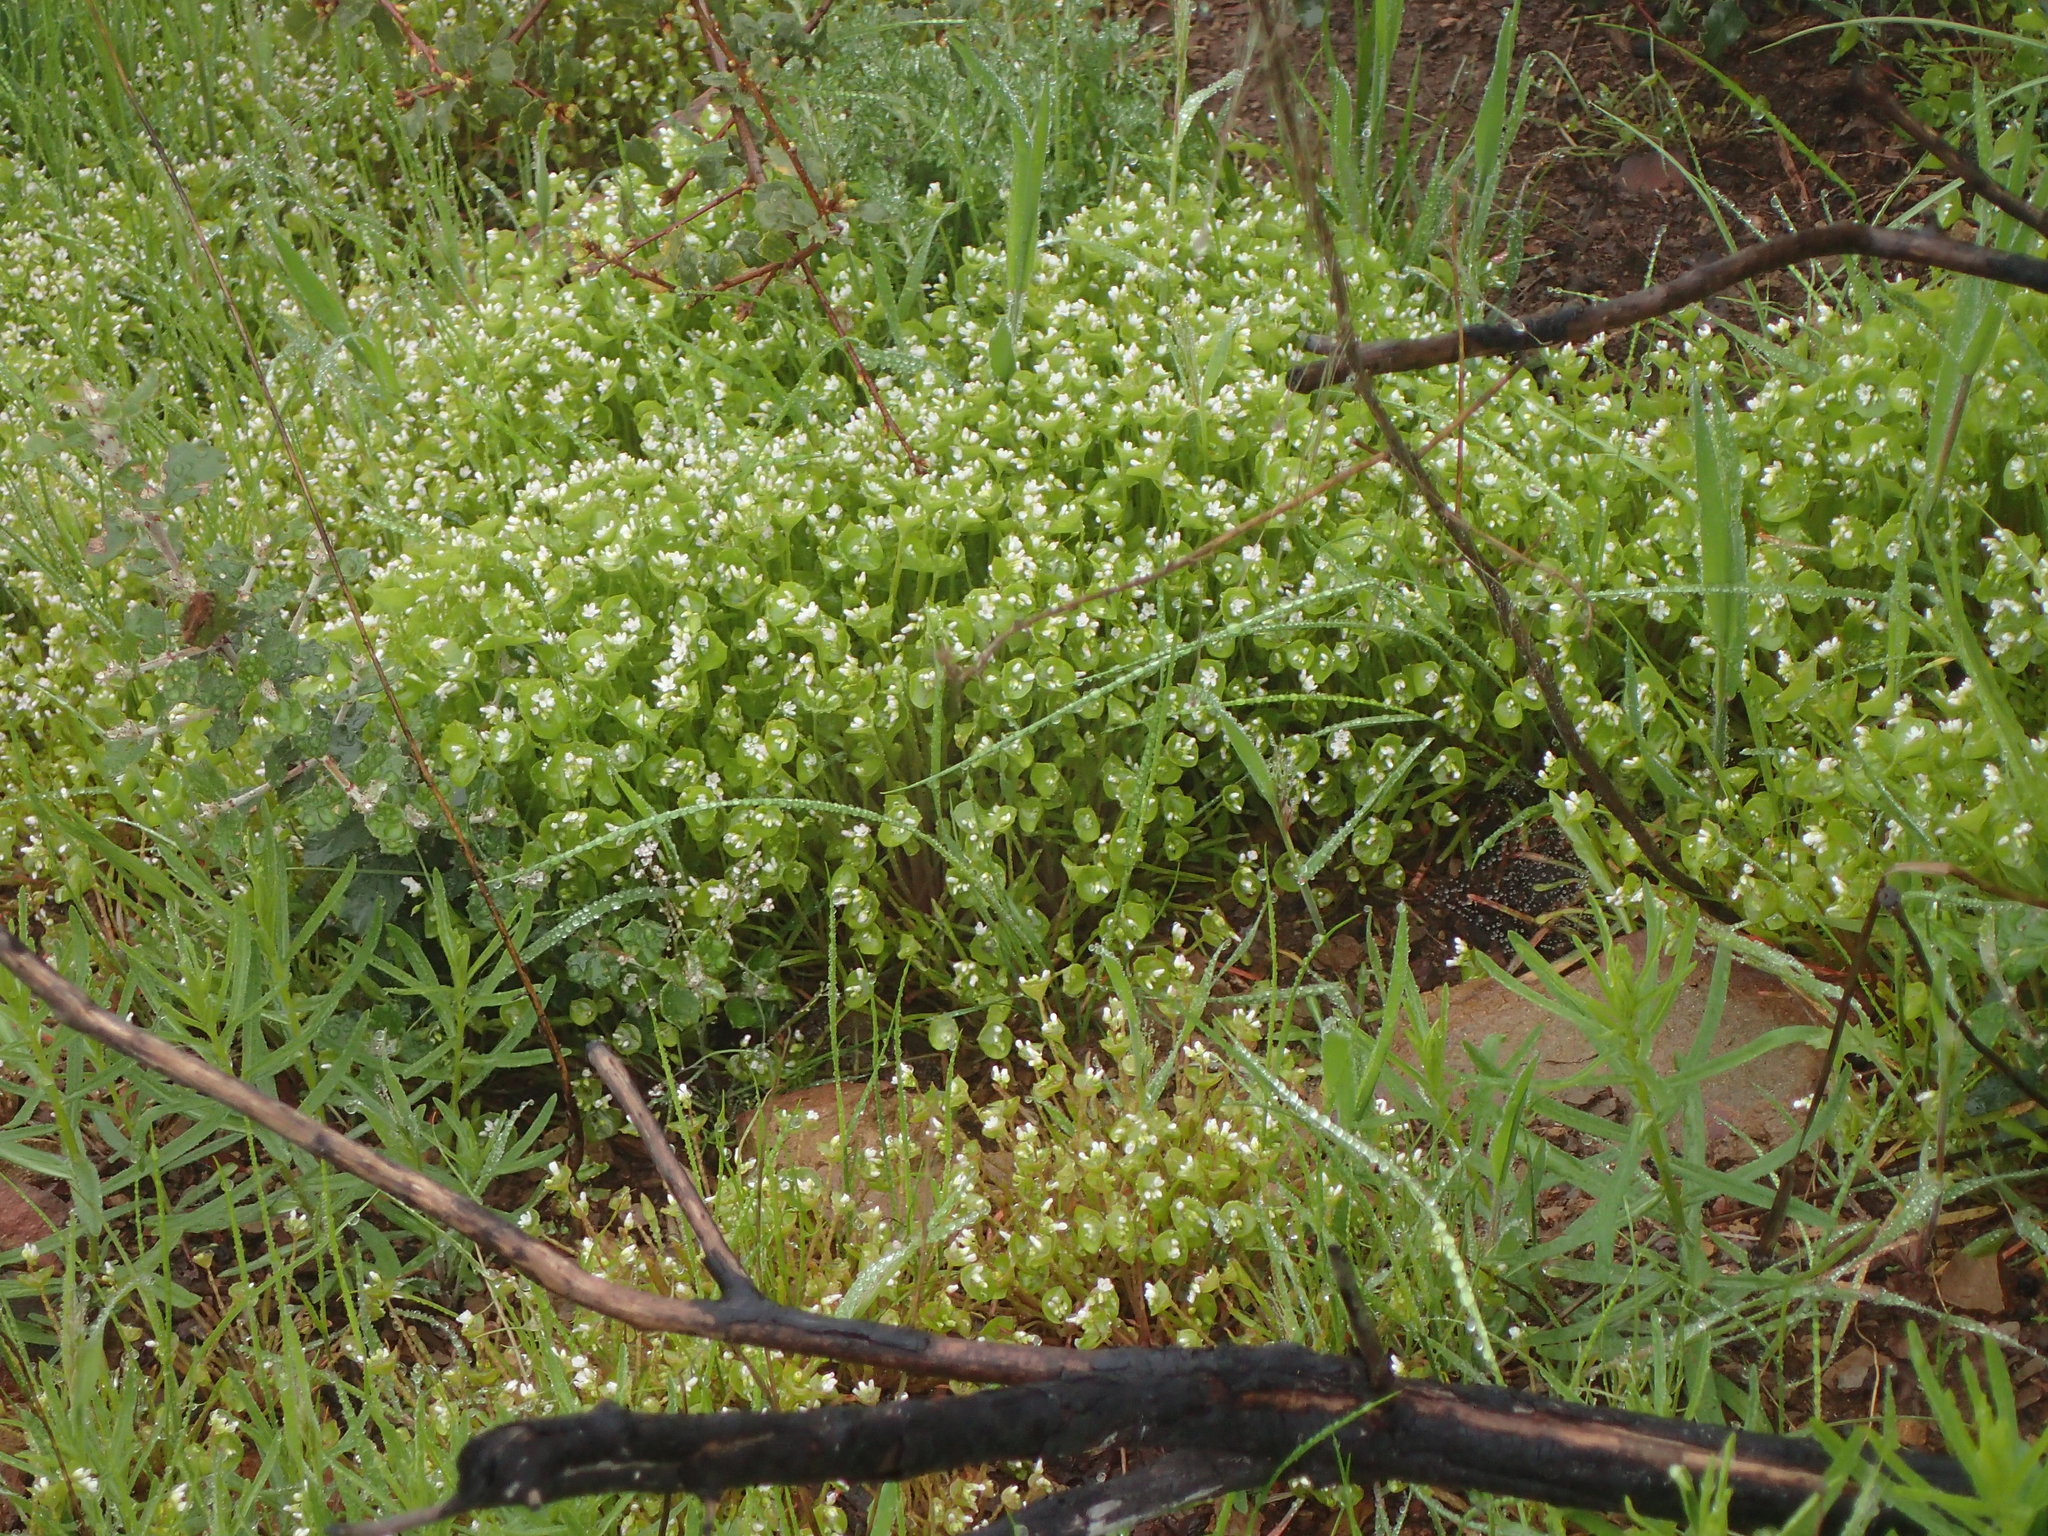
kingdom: Plantae
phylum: Tracheophyta
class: Magnoliopsida
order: Caryophyllales
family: Montiaceae
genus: Claytonia
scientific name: Claytonia perfoliata
